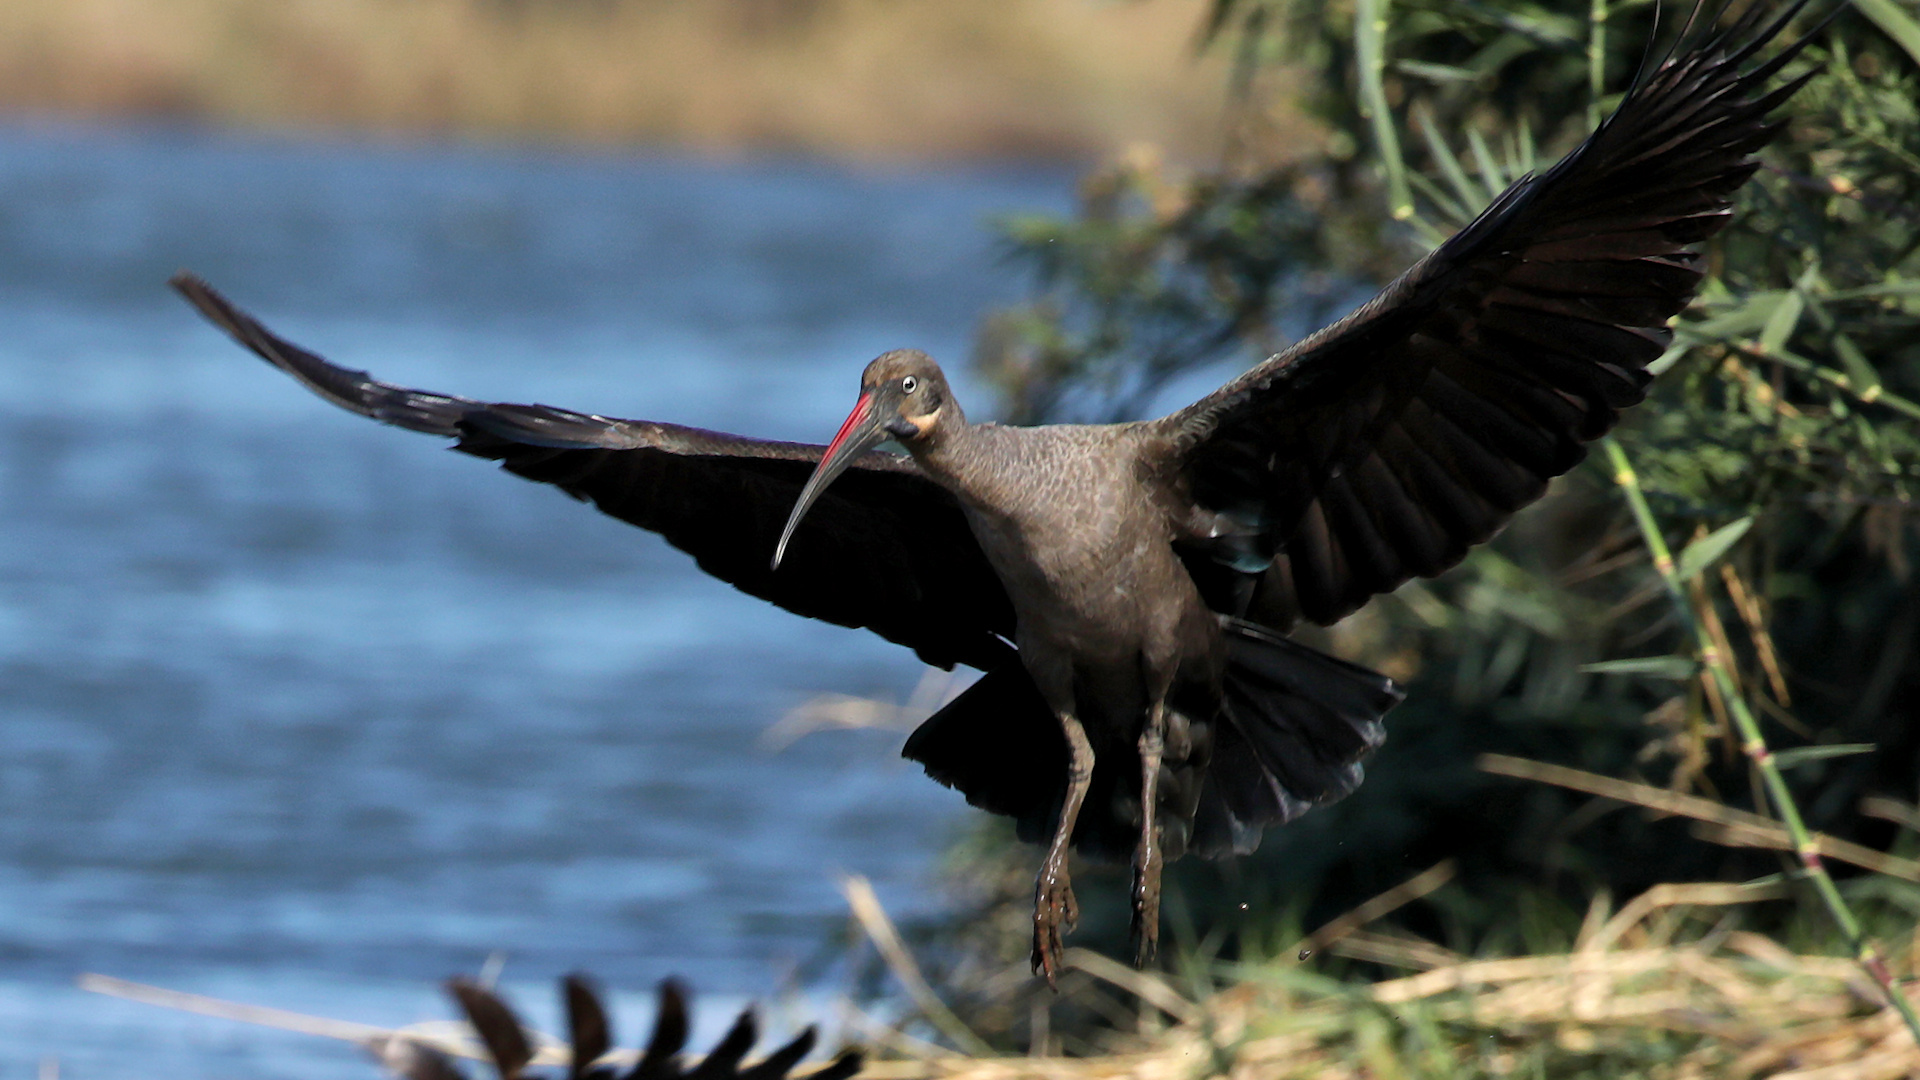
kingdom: Animalia
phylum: Chordata
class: Aves
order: Pelecaniformes
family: Threskiornithidae
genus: Bostrychia
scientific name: Bostrychia hagedash
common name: Hadada ibis
